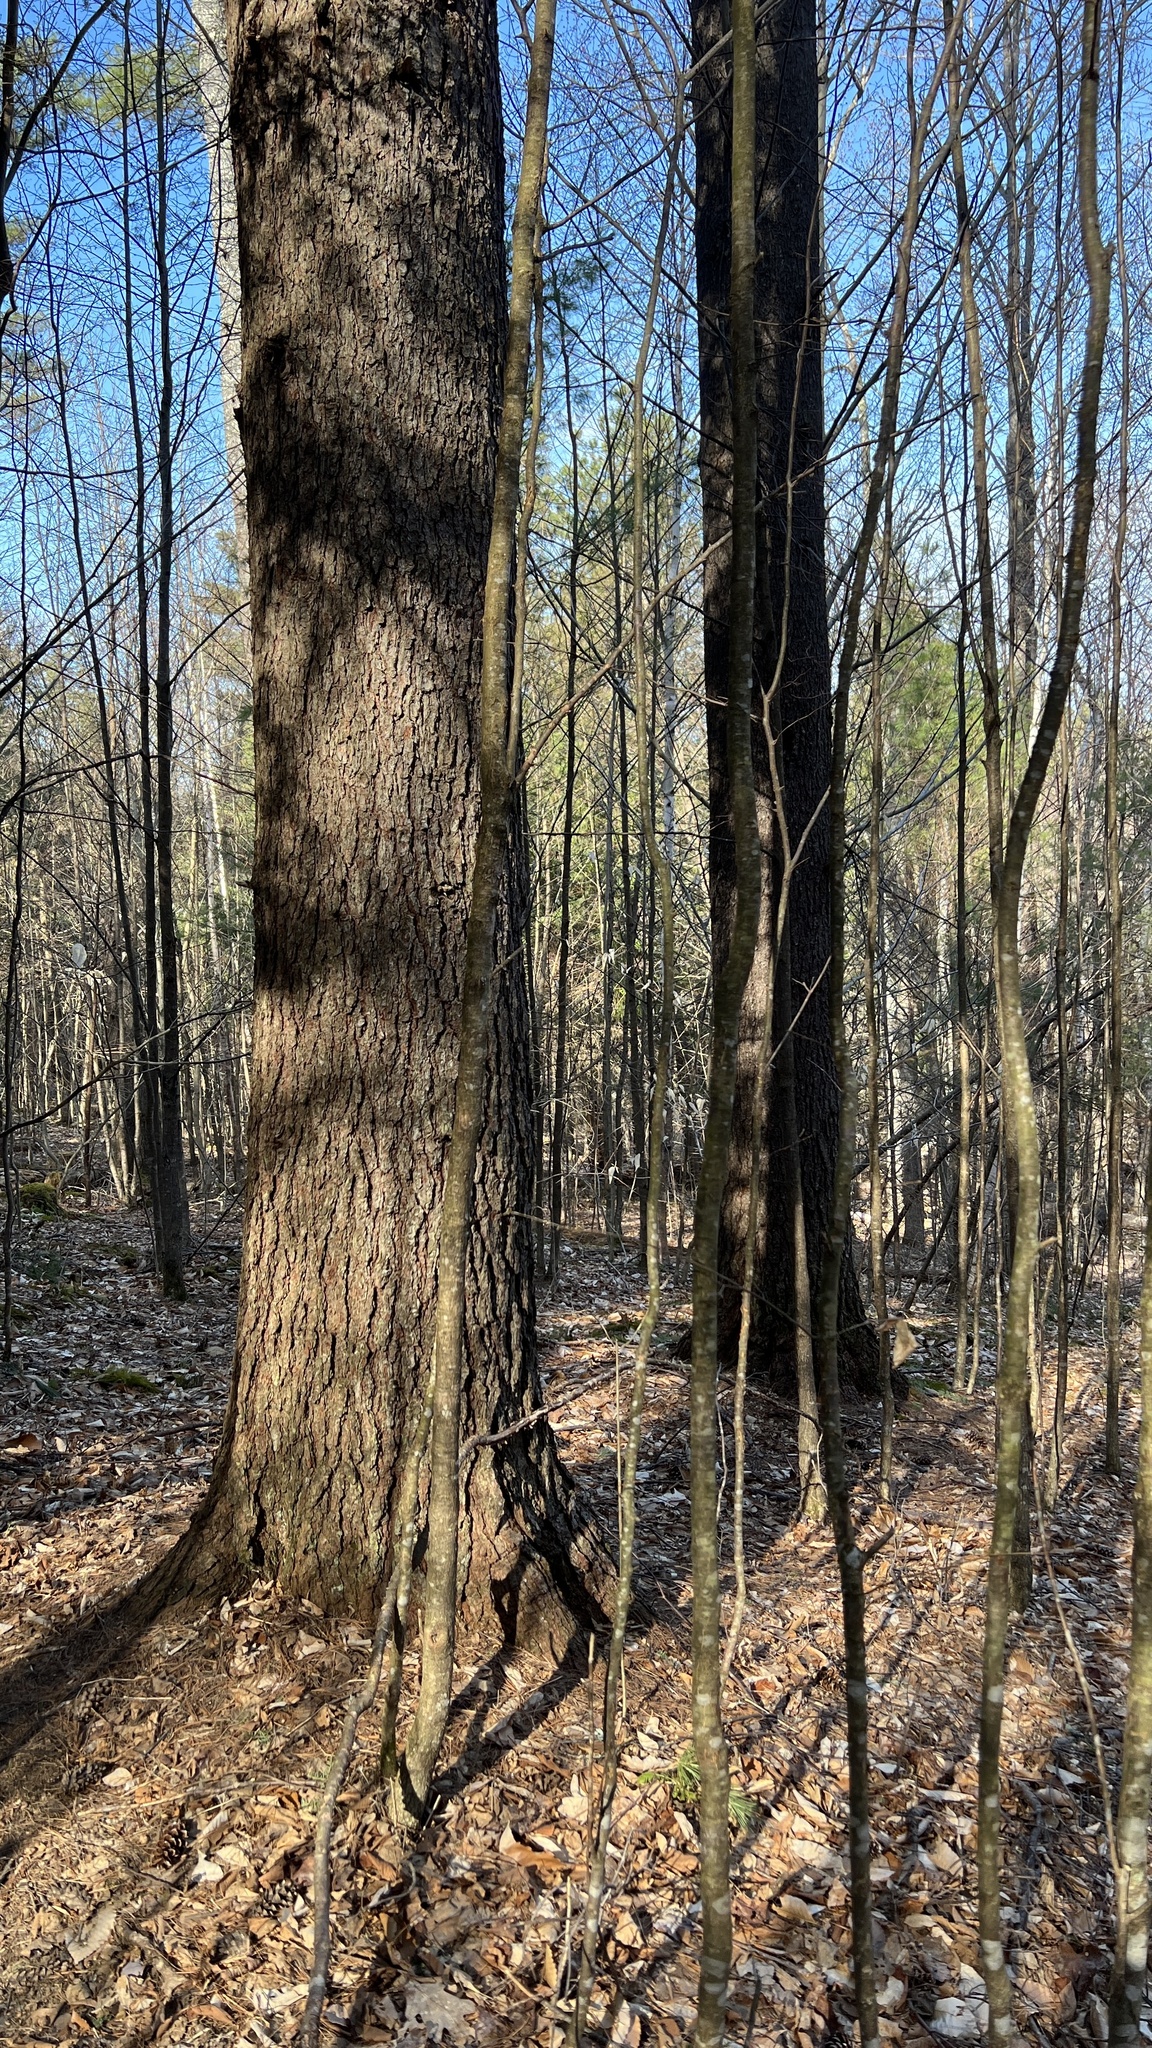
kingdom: Plantae
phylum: Tracheophyta
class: Pinopsida
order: Pinales
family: Pinaceae
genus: Pinus
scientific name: Pinus strobus
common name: Weymouth pine
